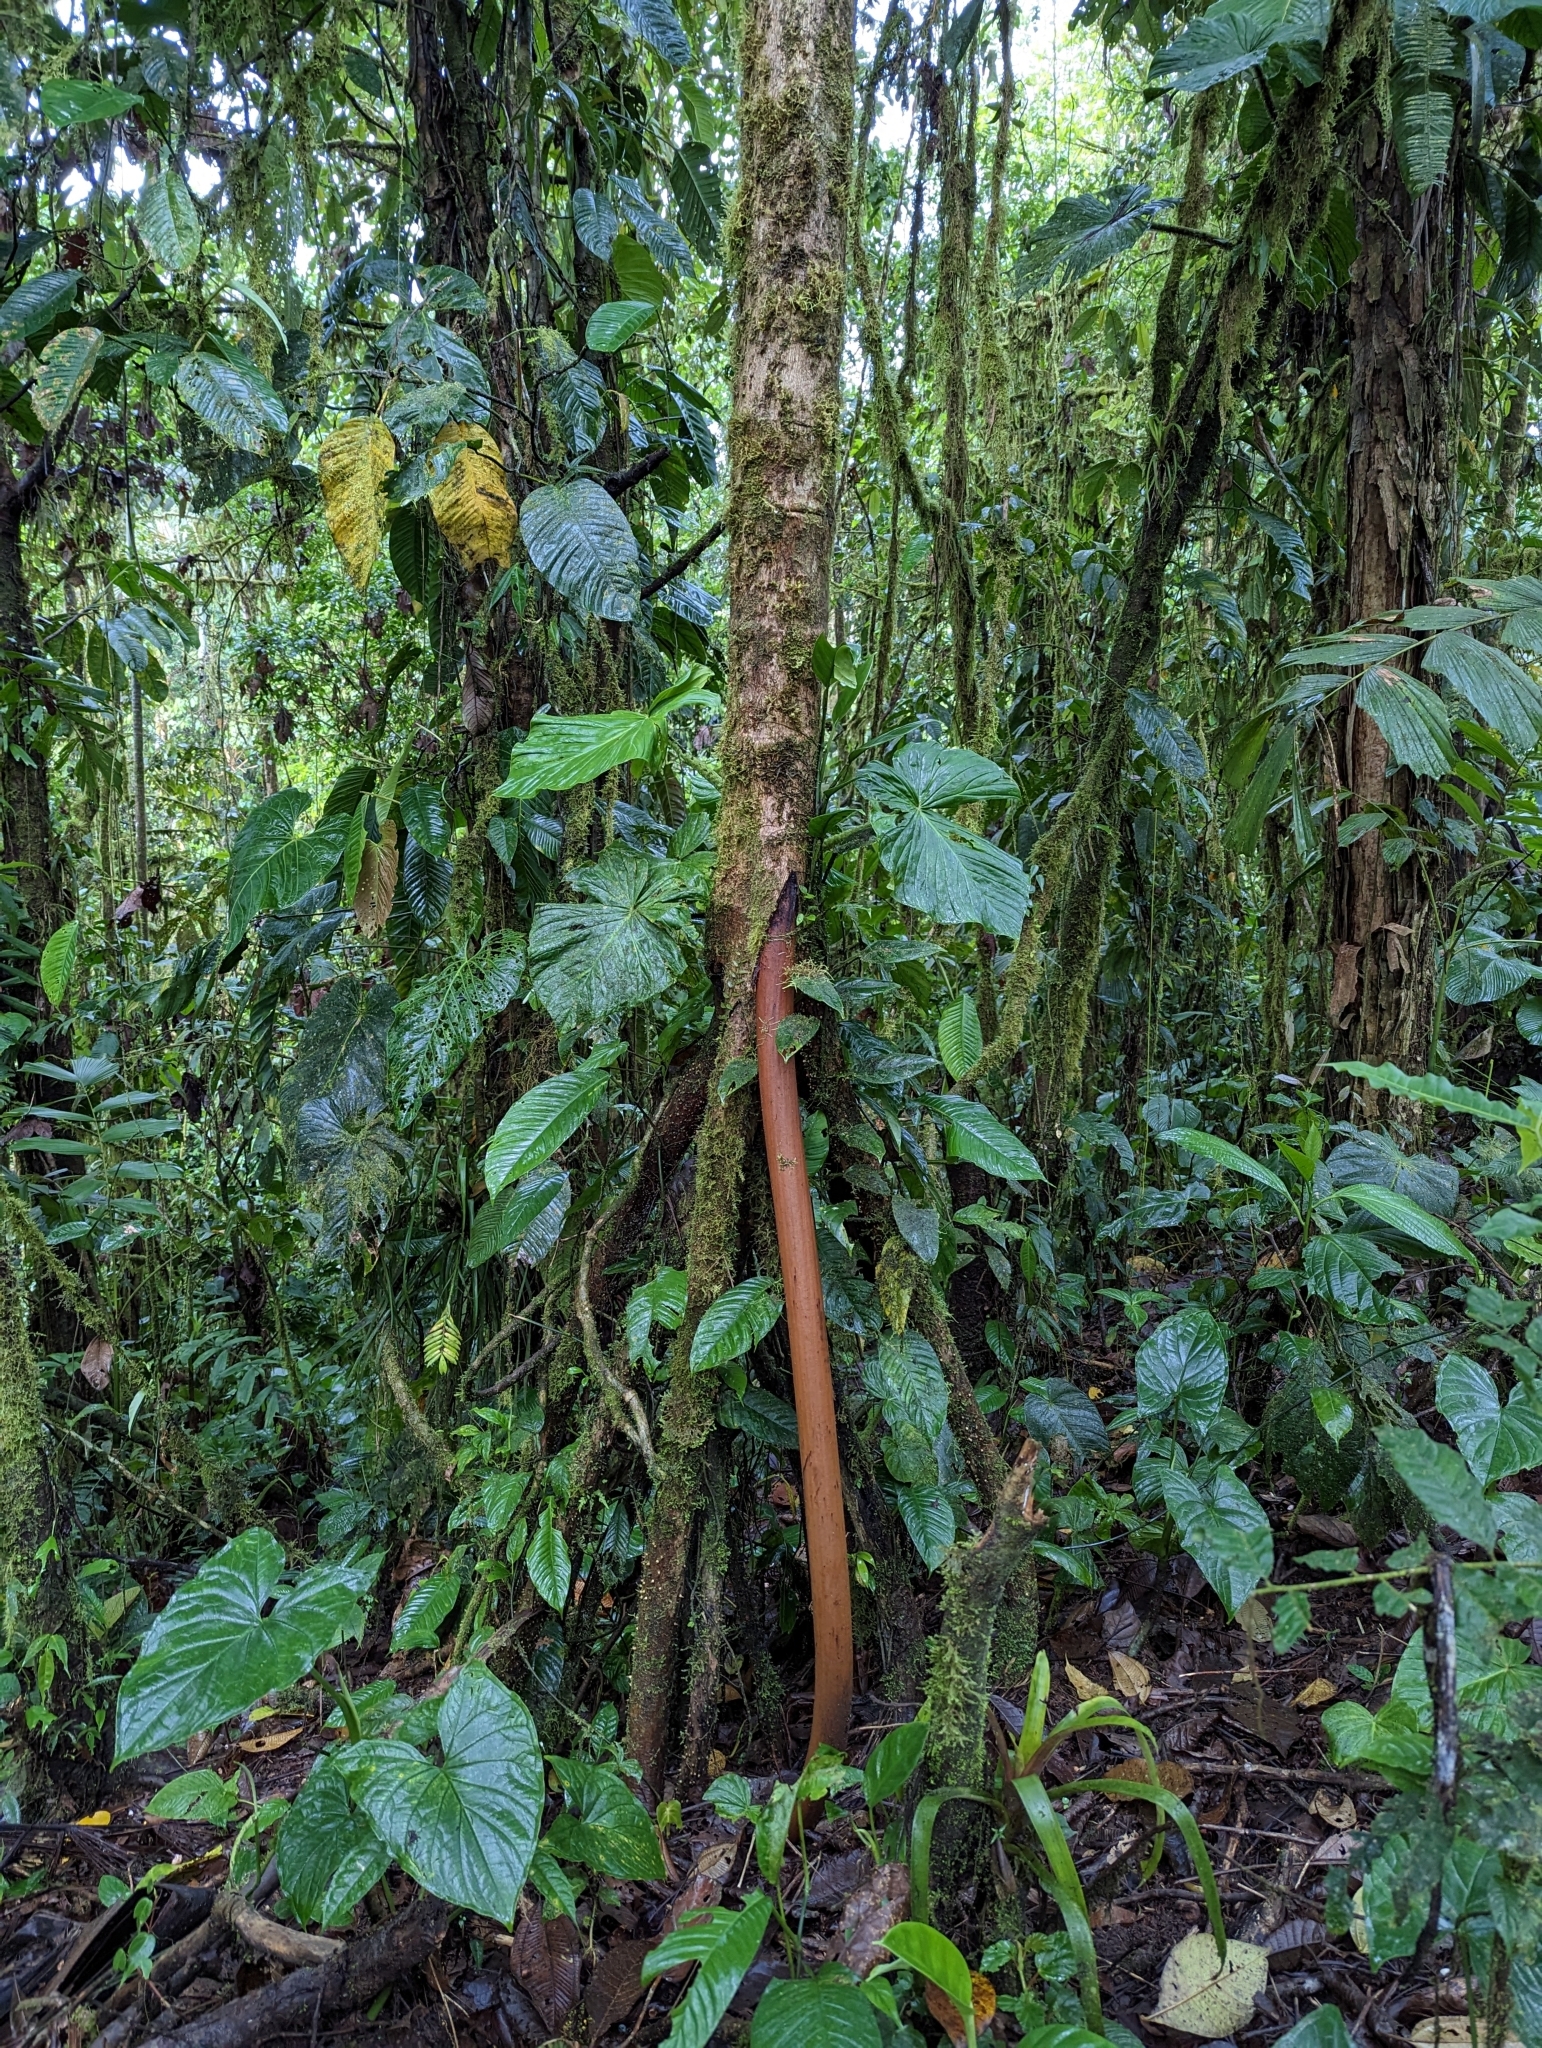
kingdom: Plantae
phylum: Tracheophyta
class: Liliopsida
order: Arecales
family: Arecaceae
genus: Socratea
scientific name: Socratea exorrhiza
